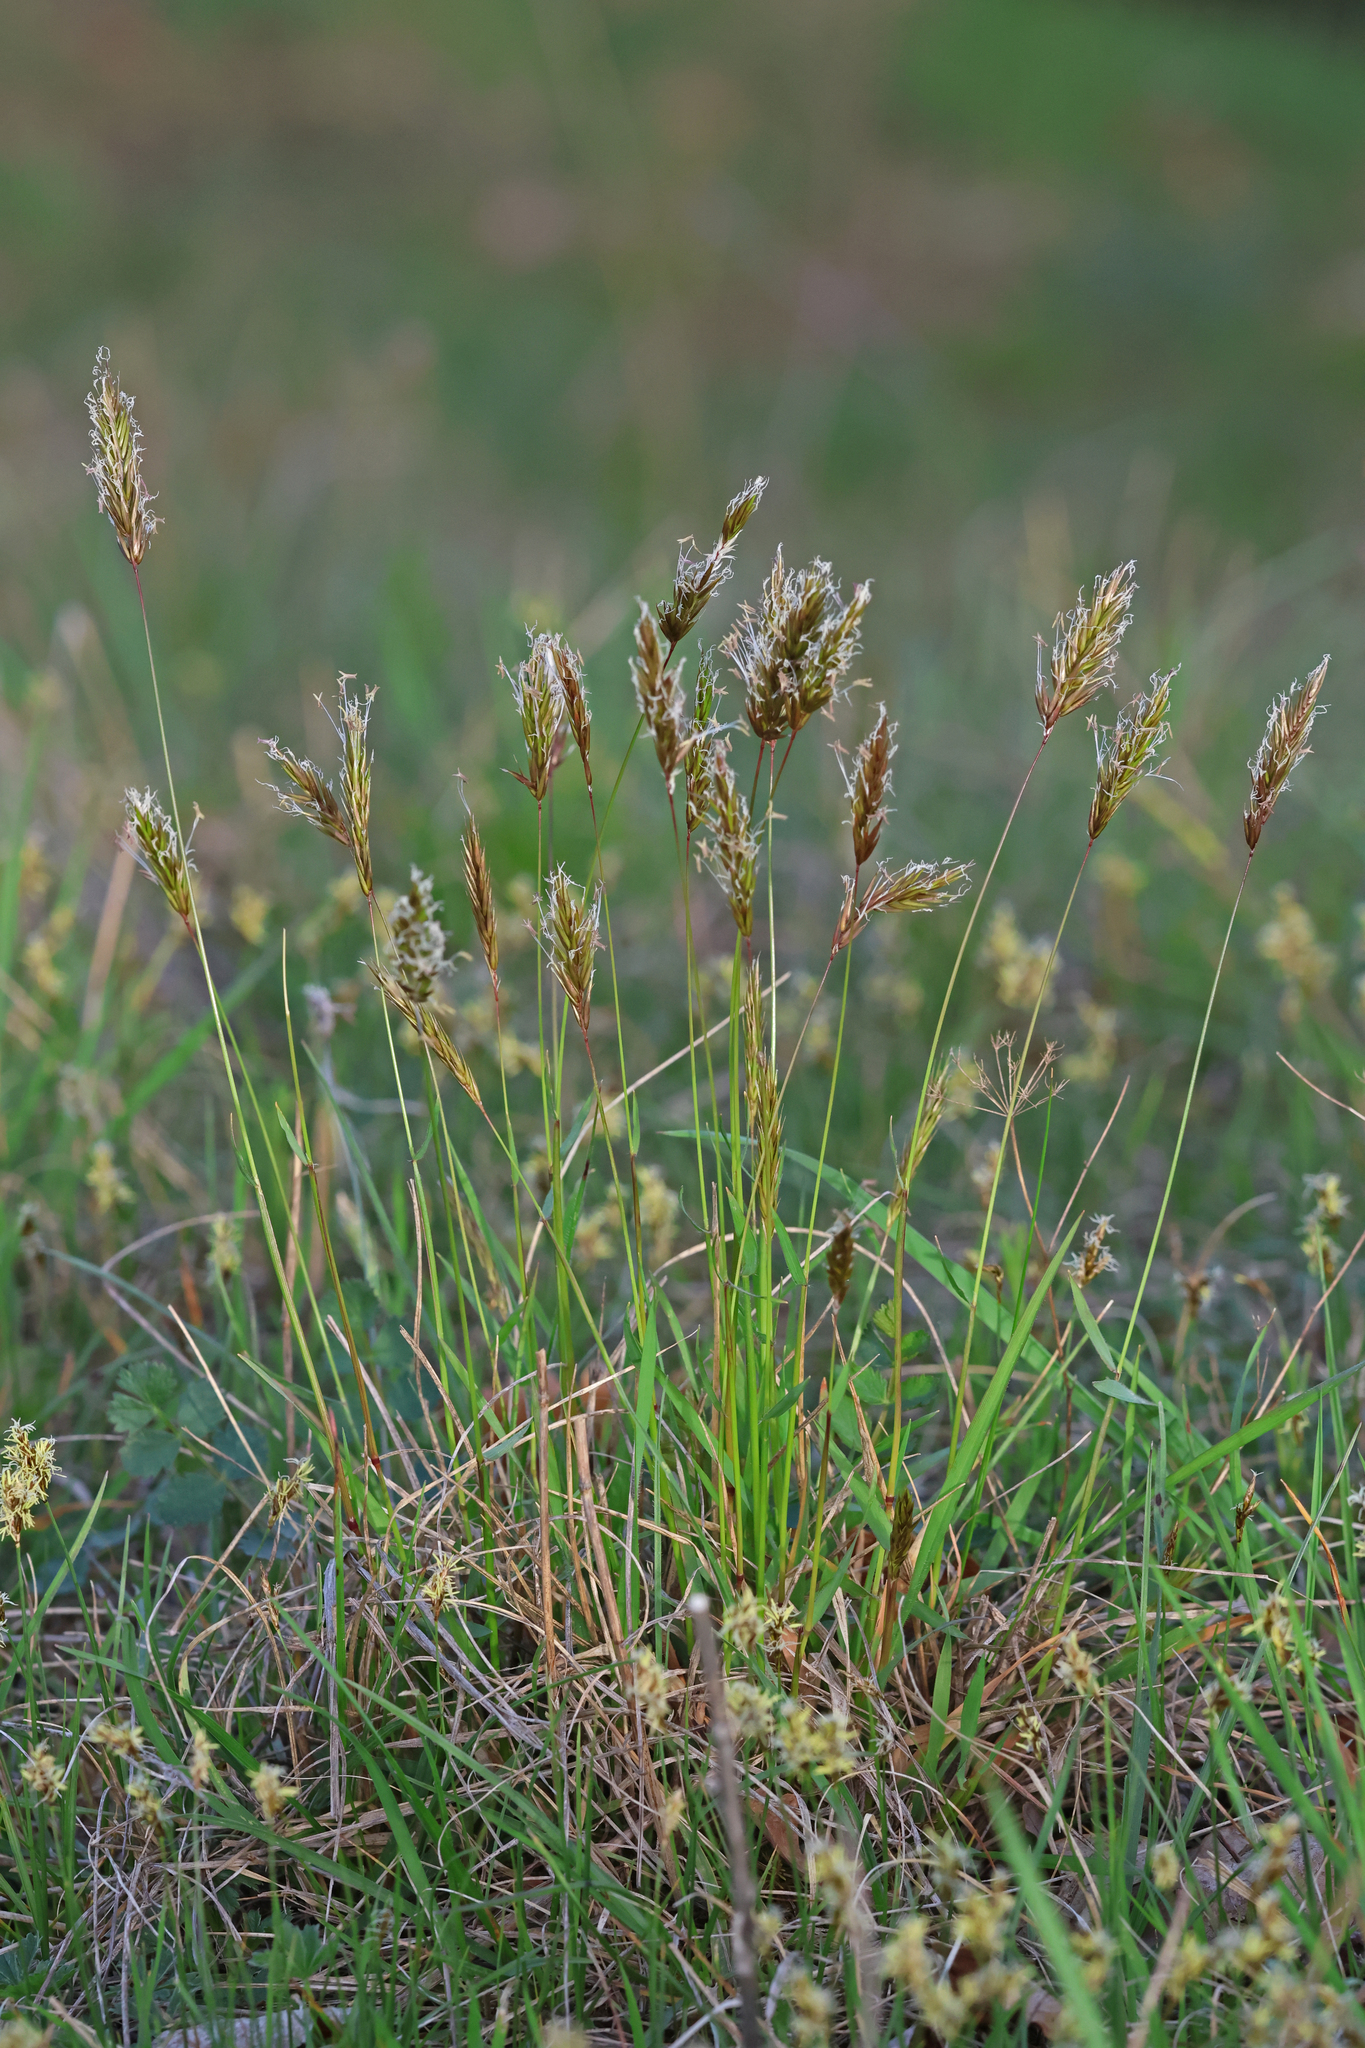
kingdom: Plantae
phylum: Tracheophyta
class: Liliopsida
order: Poales
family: Poaceae
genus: Anthoxanthum
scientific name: Anthoxanthum odoratum
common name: Sweet vernalgrass
